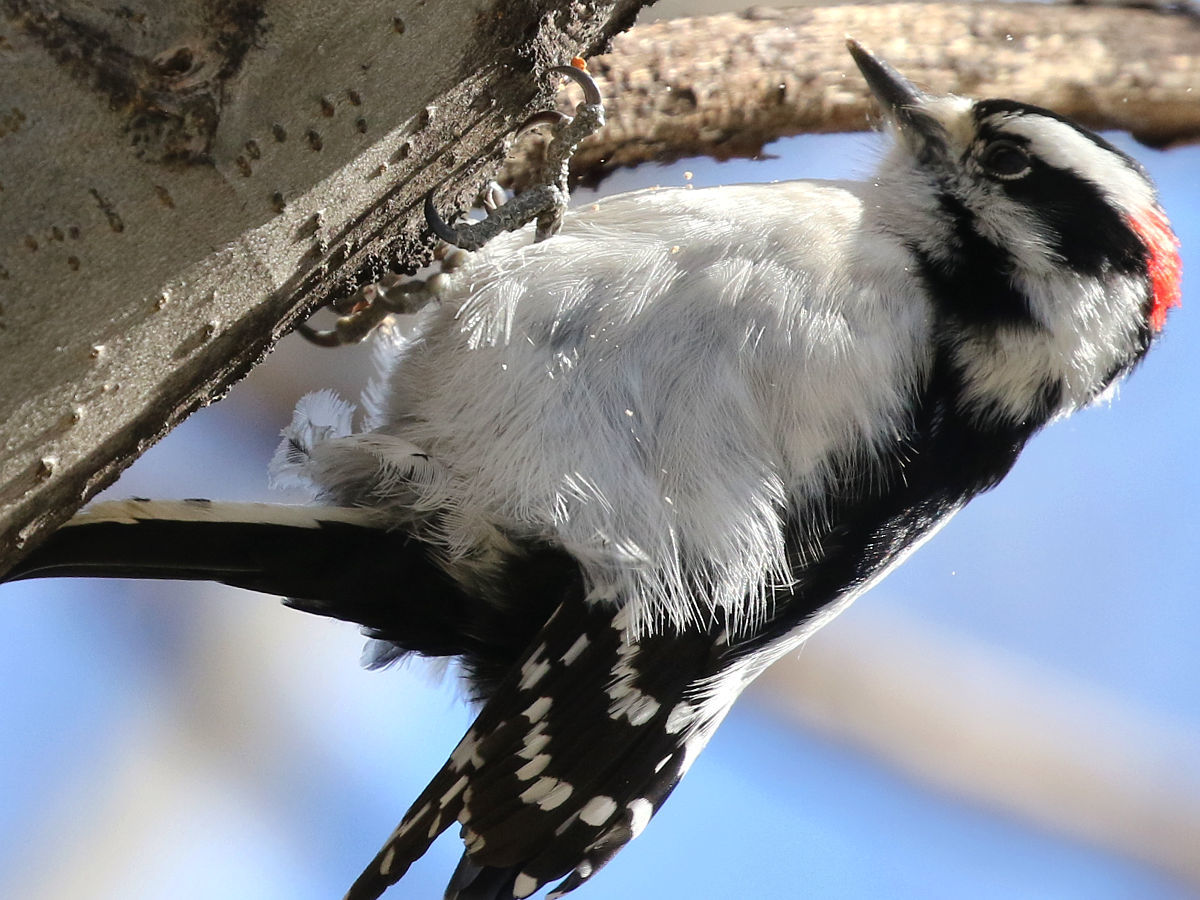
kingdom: Animalia
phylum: Chordata
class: Aves
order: Piciformes
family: Picidae
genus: Dryobates
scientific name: Dryobates pubescens
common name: Downy woodpecker
